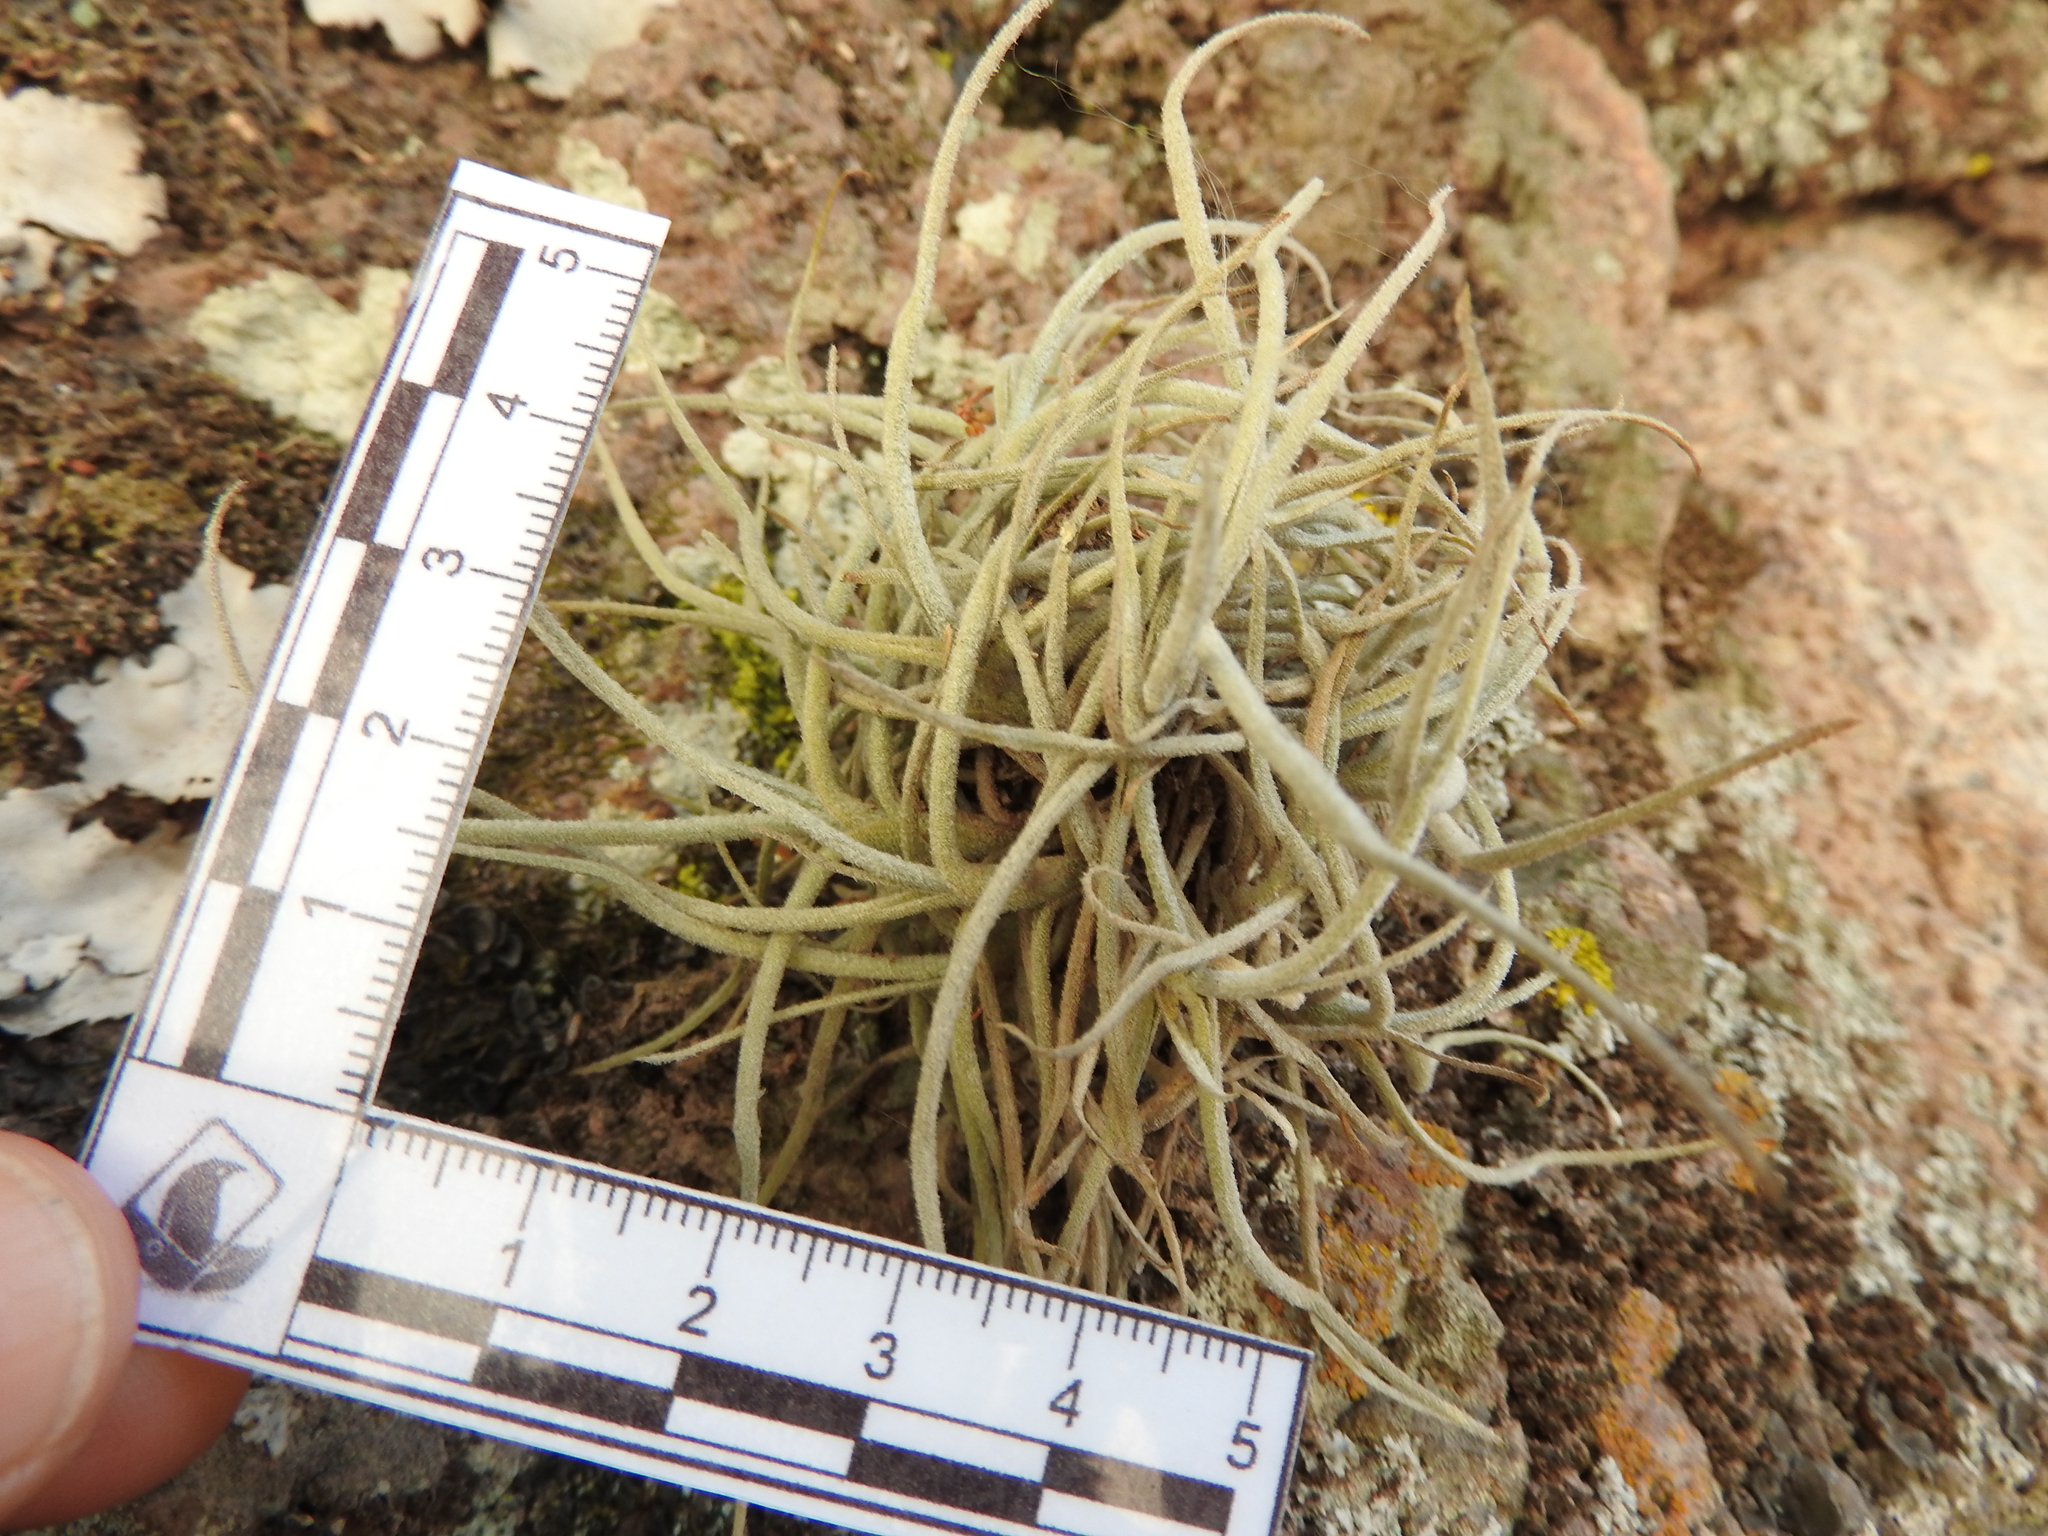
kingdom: Plantae
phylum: Tracheophyta
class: Liliopsida
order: Poales
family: Bromeliaceae
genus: Tillandsia
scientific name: Tillandsia recurvata
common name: Small ballmoss
